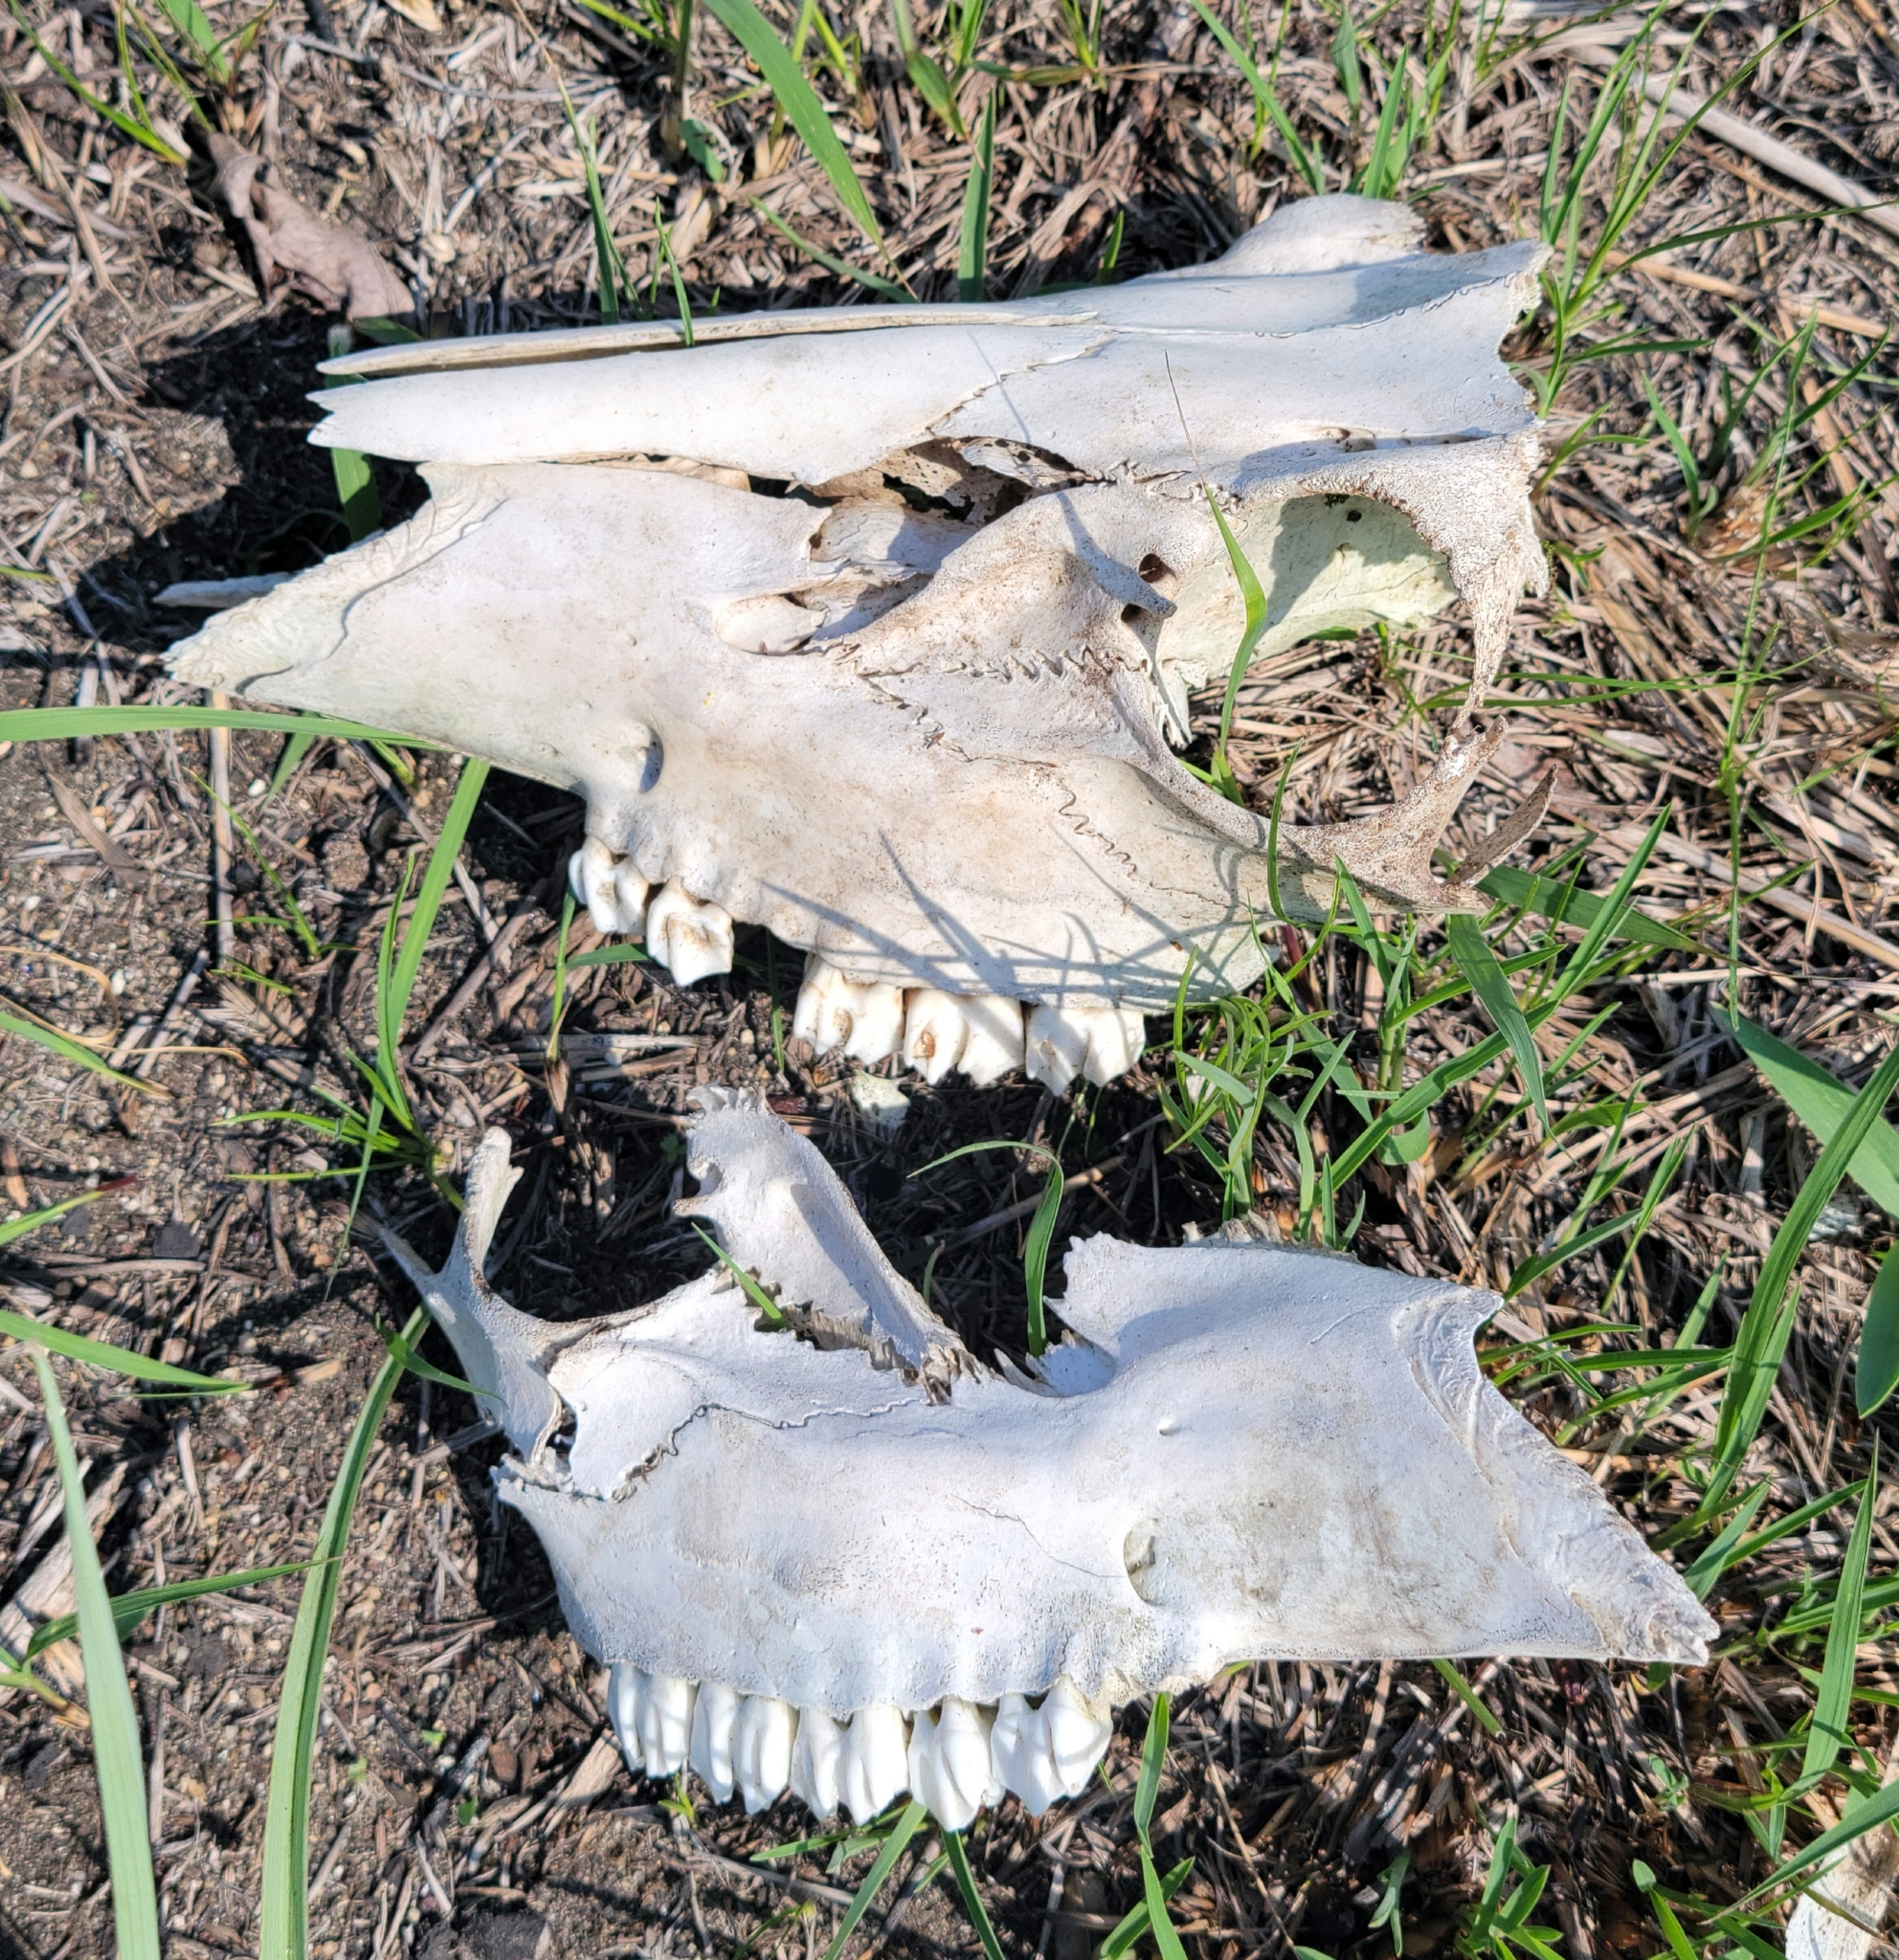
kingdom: Animalia
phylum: Chordata
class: Mammalia
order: Artiodactyla
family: Cervidae
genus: Odocoileus
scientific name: Odocoileus virginianus
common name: White-tailed deer
